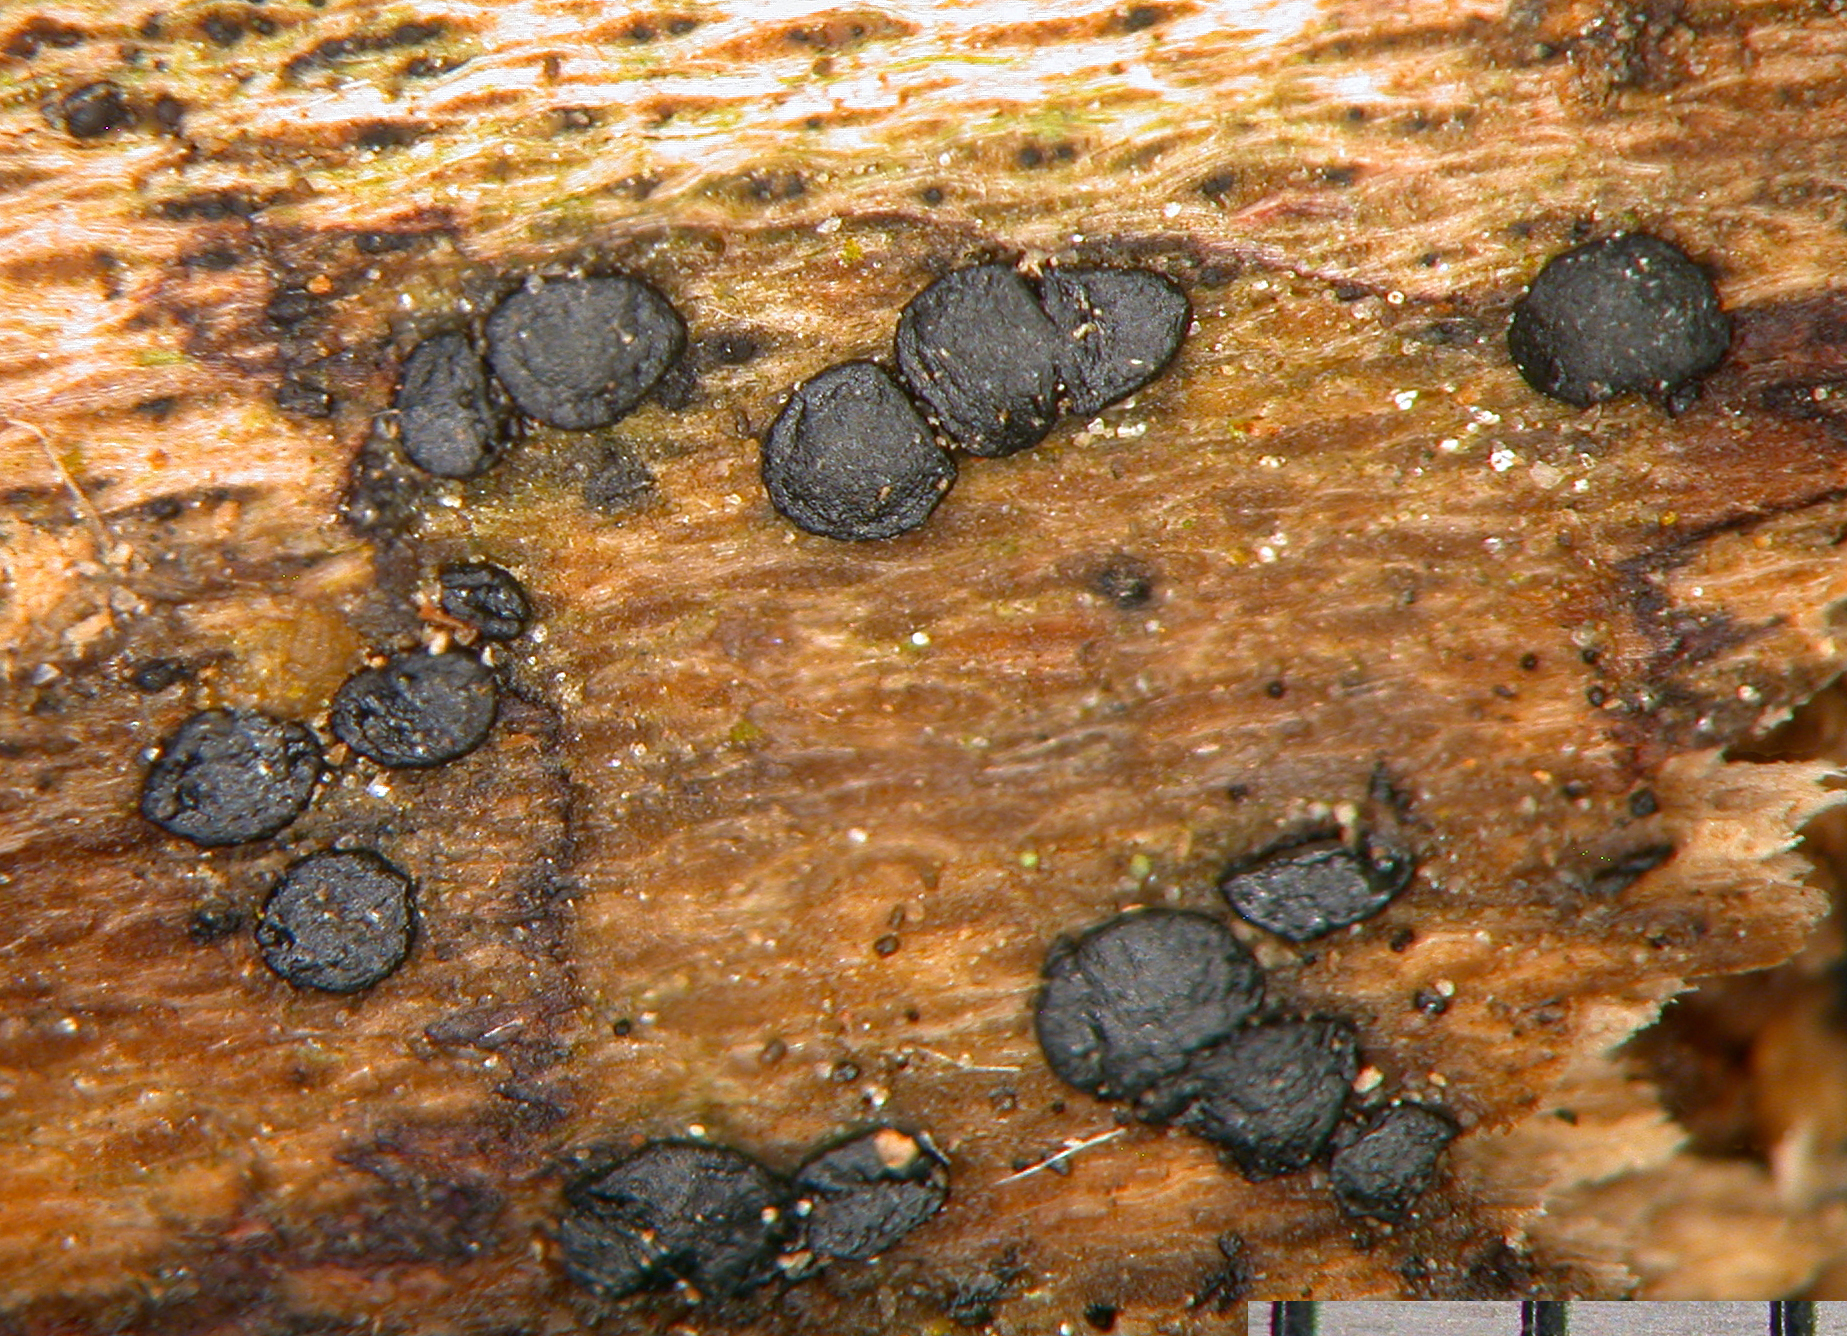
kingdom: Fungi
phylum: Ascomycota
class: Dothideomycetes
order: Patellariales
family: Patellariaceae
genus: Patellaria
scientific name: Patellaria atrata
